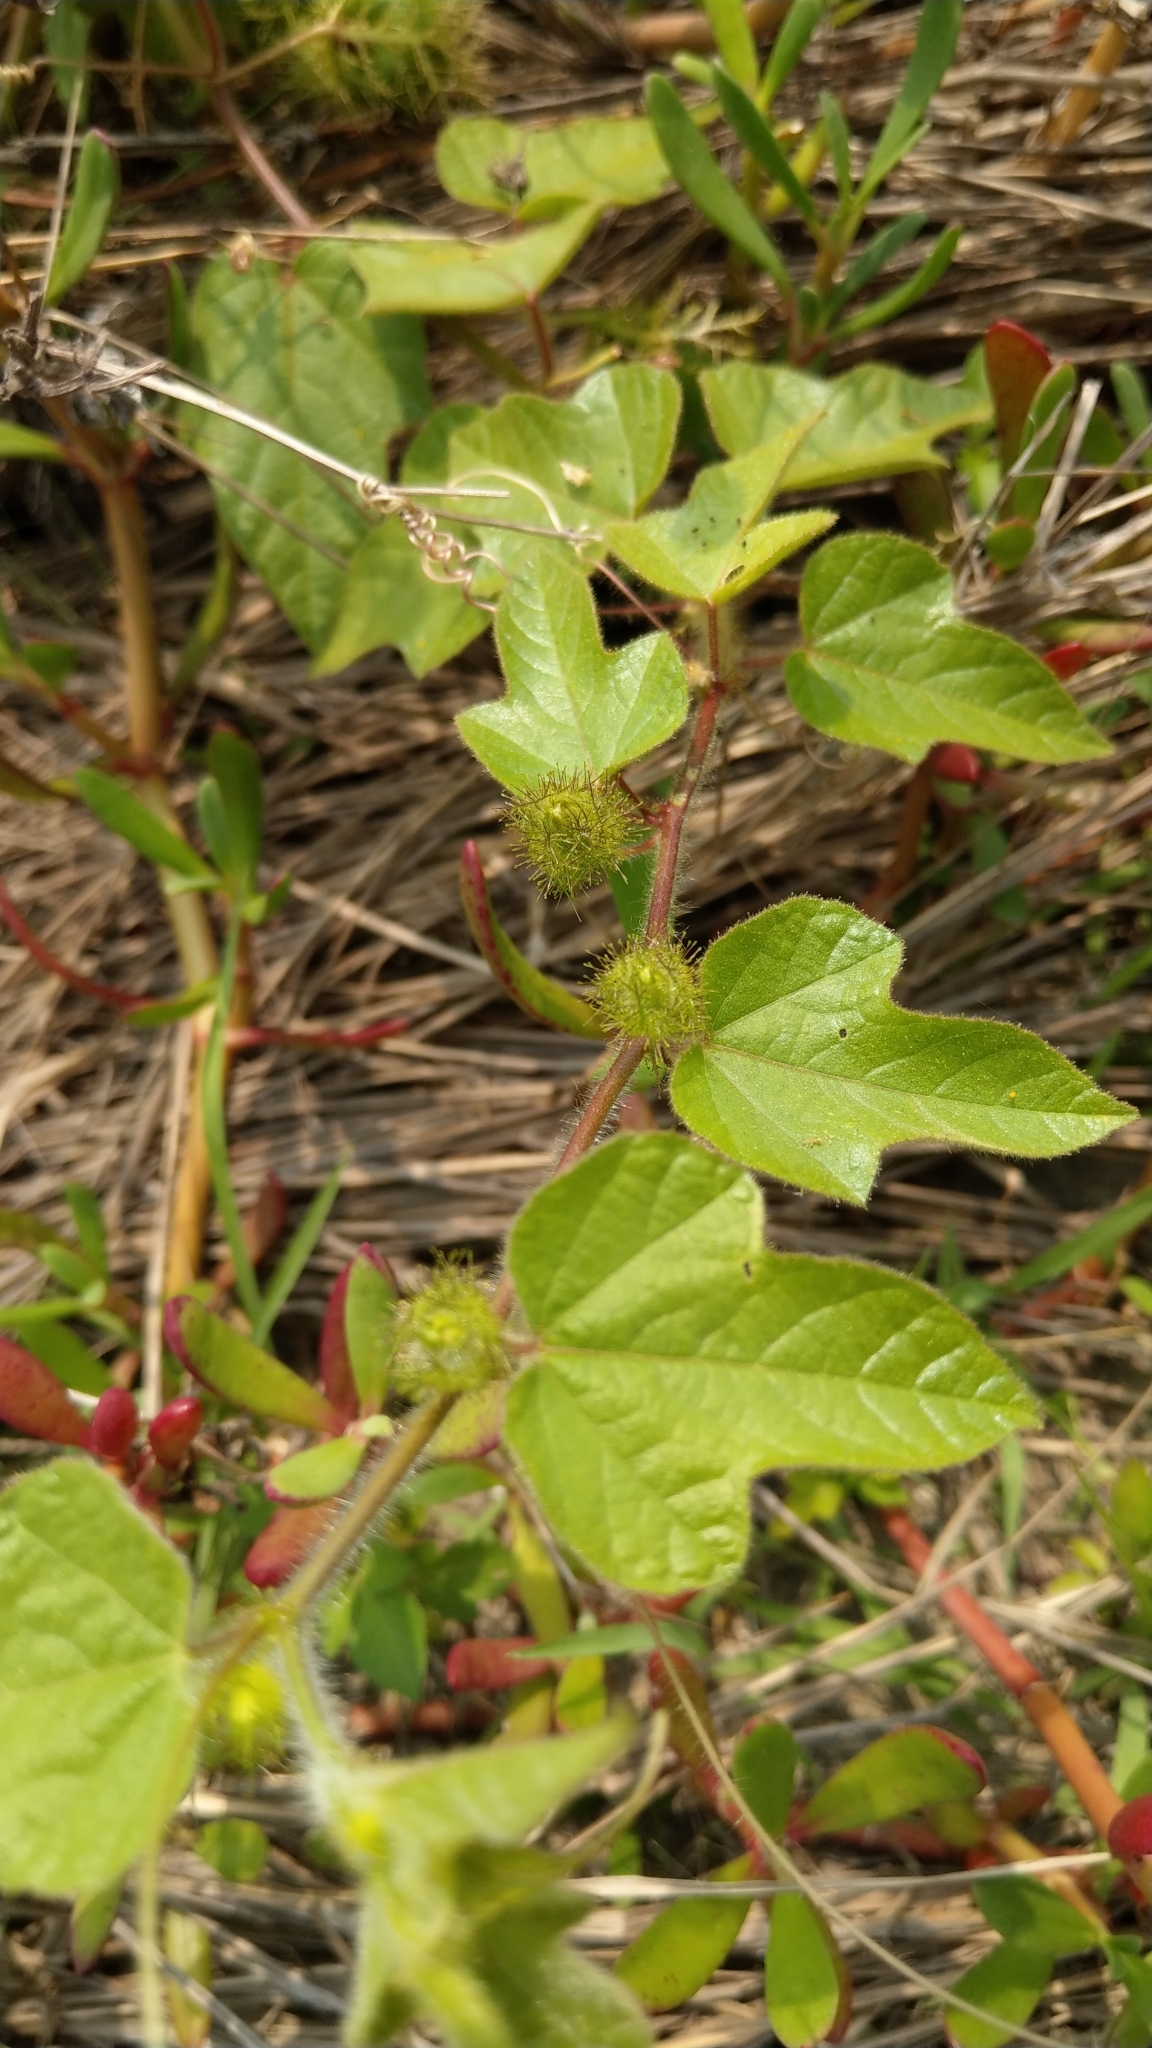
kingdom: Plantae
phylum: Tracheophyta
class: Magnoliopsida
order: Malpighiales
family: Passifloraceae
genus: Passiflora
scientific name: Passiflora vesicaria
